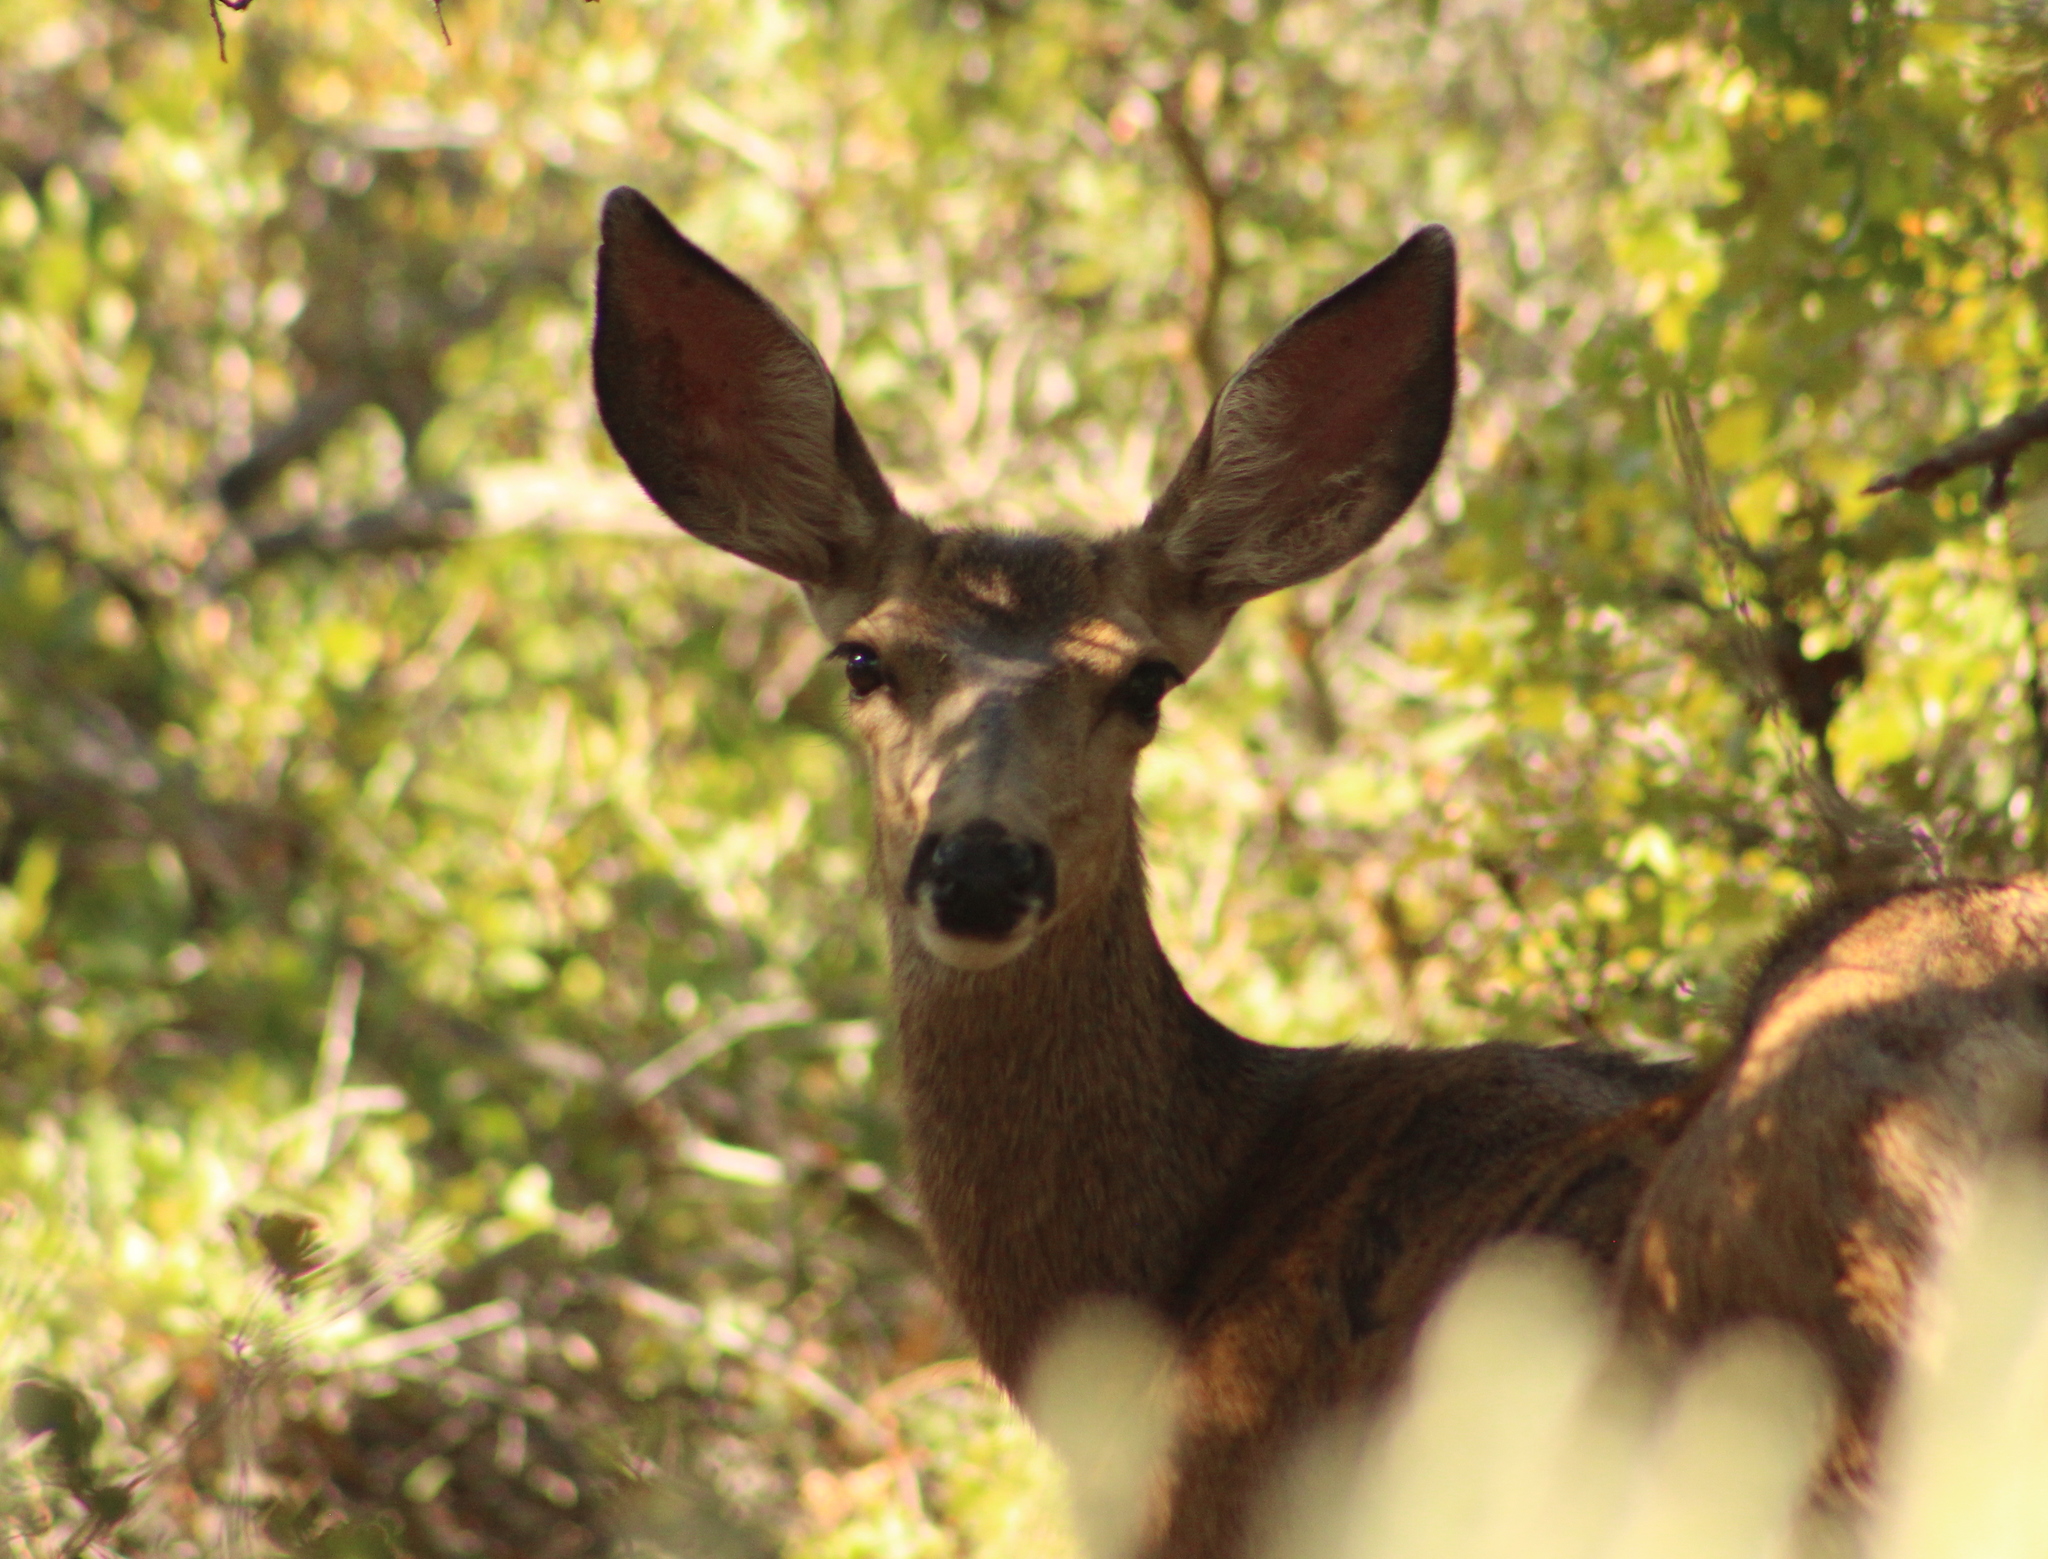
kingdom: Animalia
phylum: Chordata
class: Mammalia
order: Artiodactyla
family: Cervidae
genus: Odocoileus
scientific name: Odocoileus hemionus
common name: Mule deer
